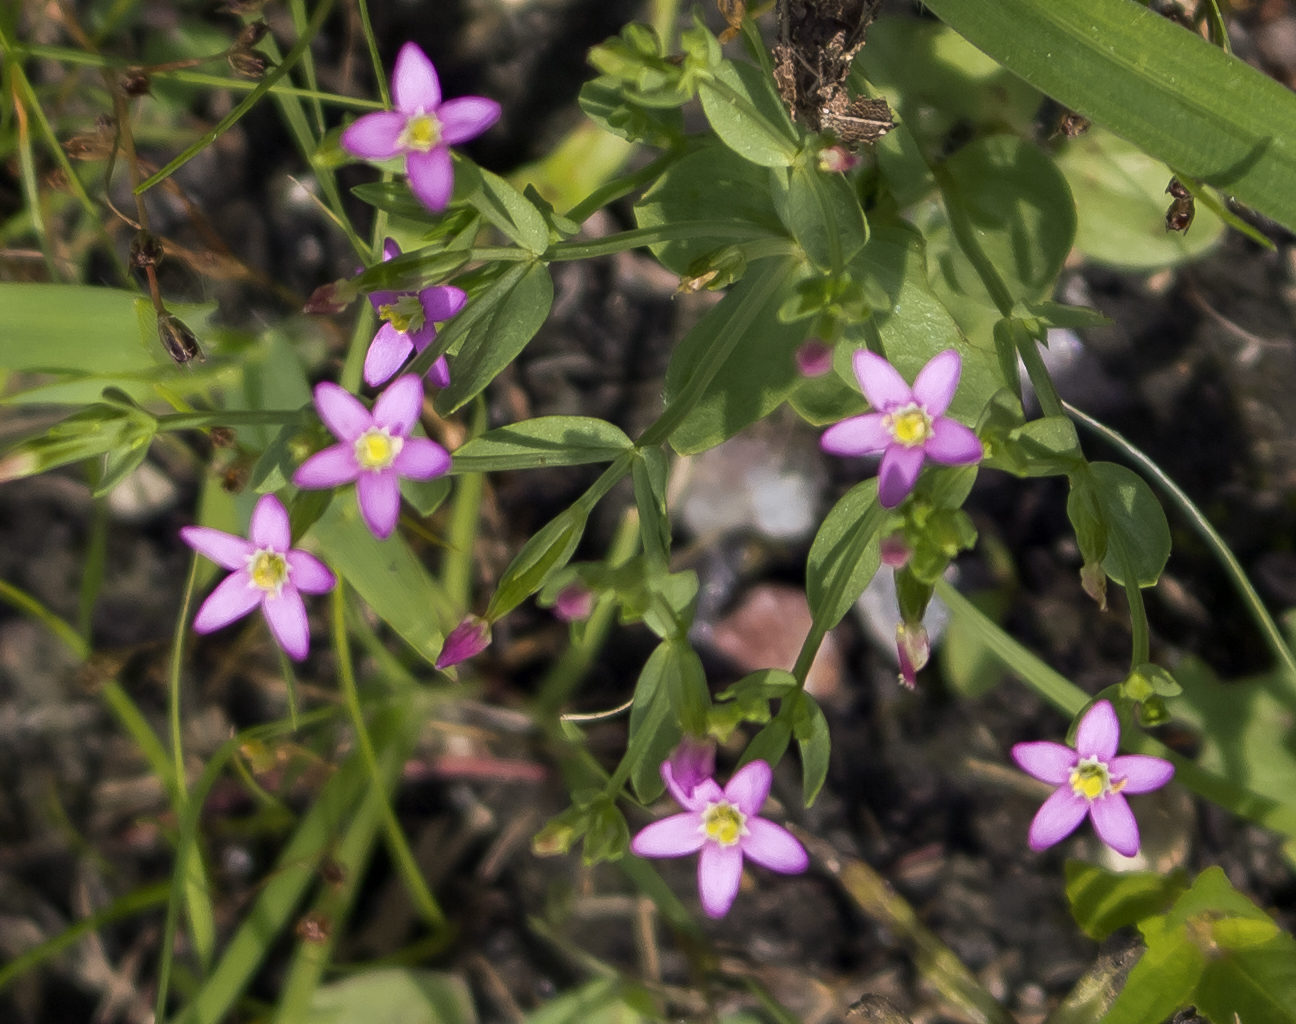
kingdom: Plantae
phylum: Tracheophyta
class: Magnoliopsida
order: Gentianales
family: Gentianaceae
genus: Centaurium
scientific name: Centaurium pulchellum
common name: Lesser centaury
